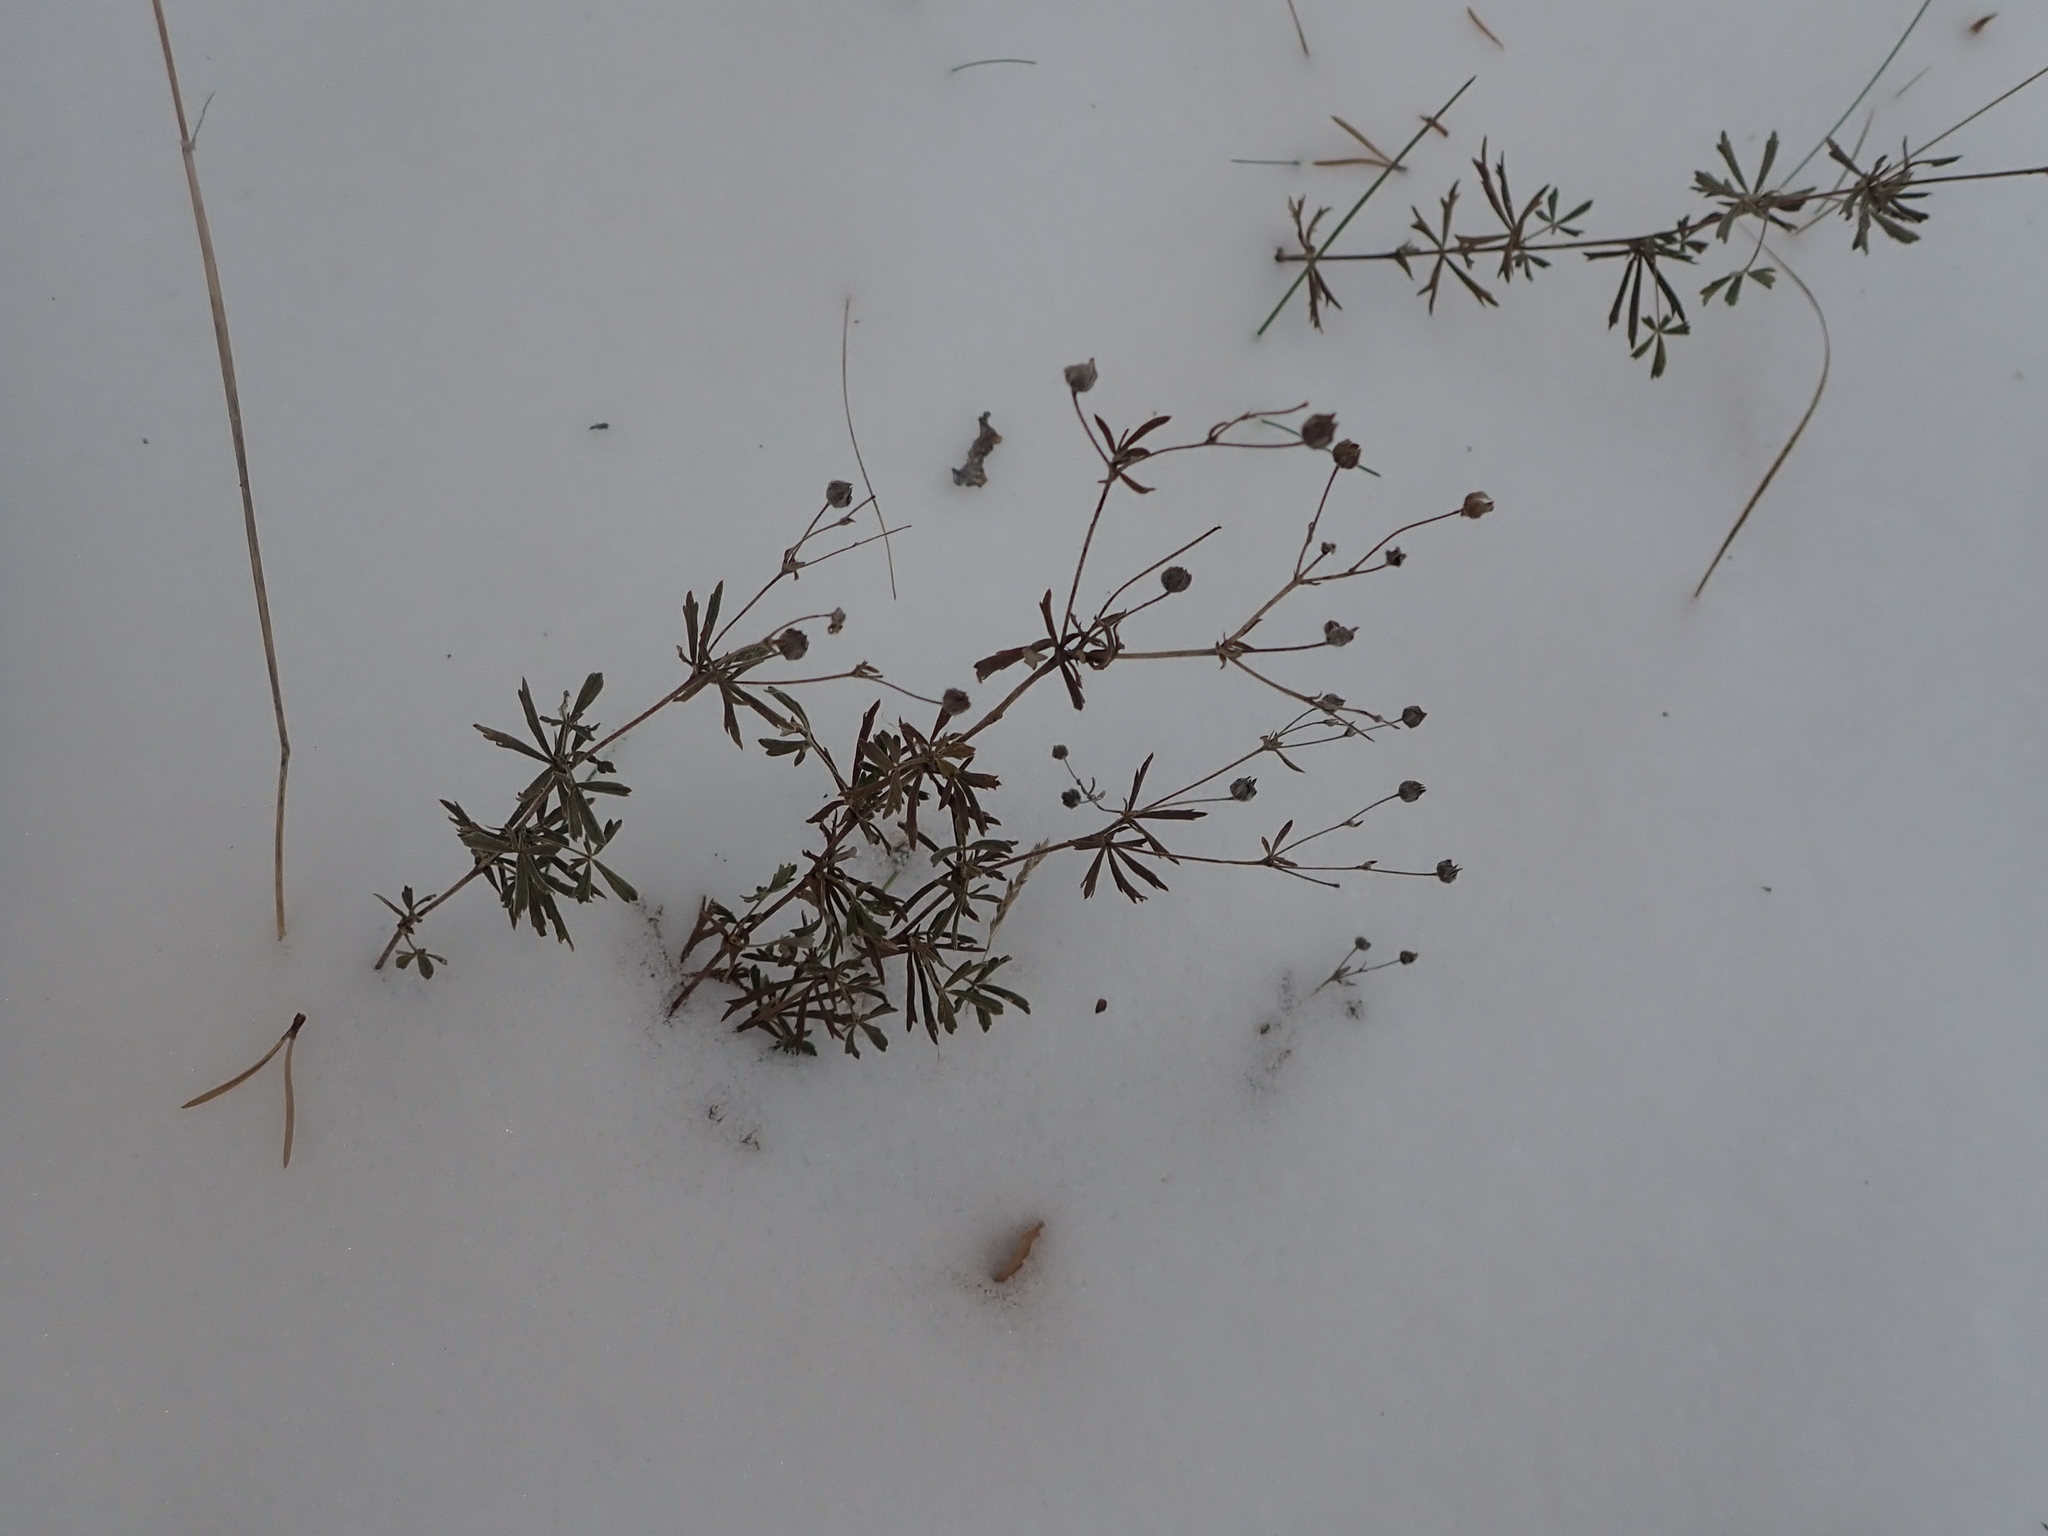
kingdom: Plantae
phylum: Tracheophyta
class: Magnoliopsida
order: Rosales
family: Rosaceae
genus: Potentilla
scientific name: Potentilla argentea
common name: Hoary cinquefoil
